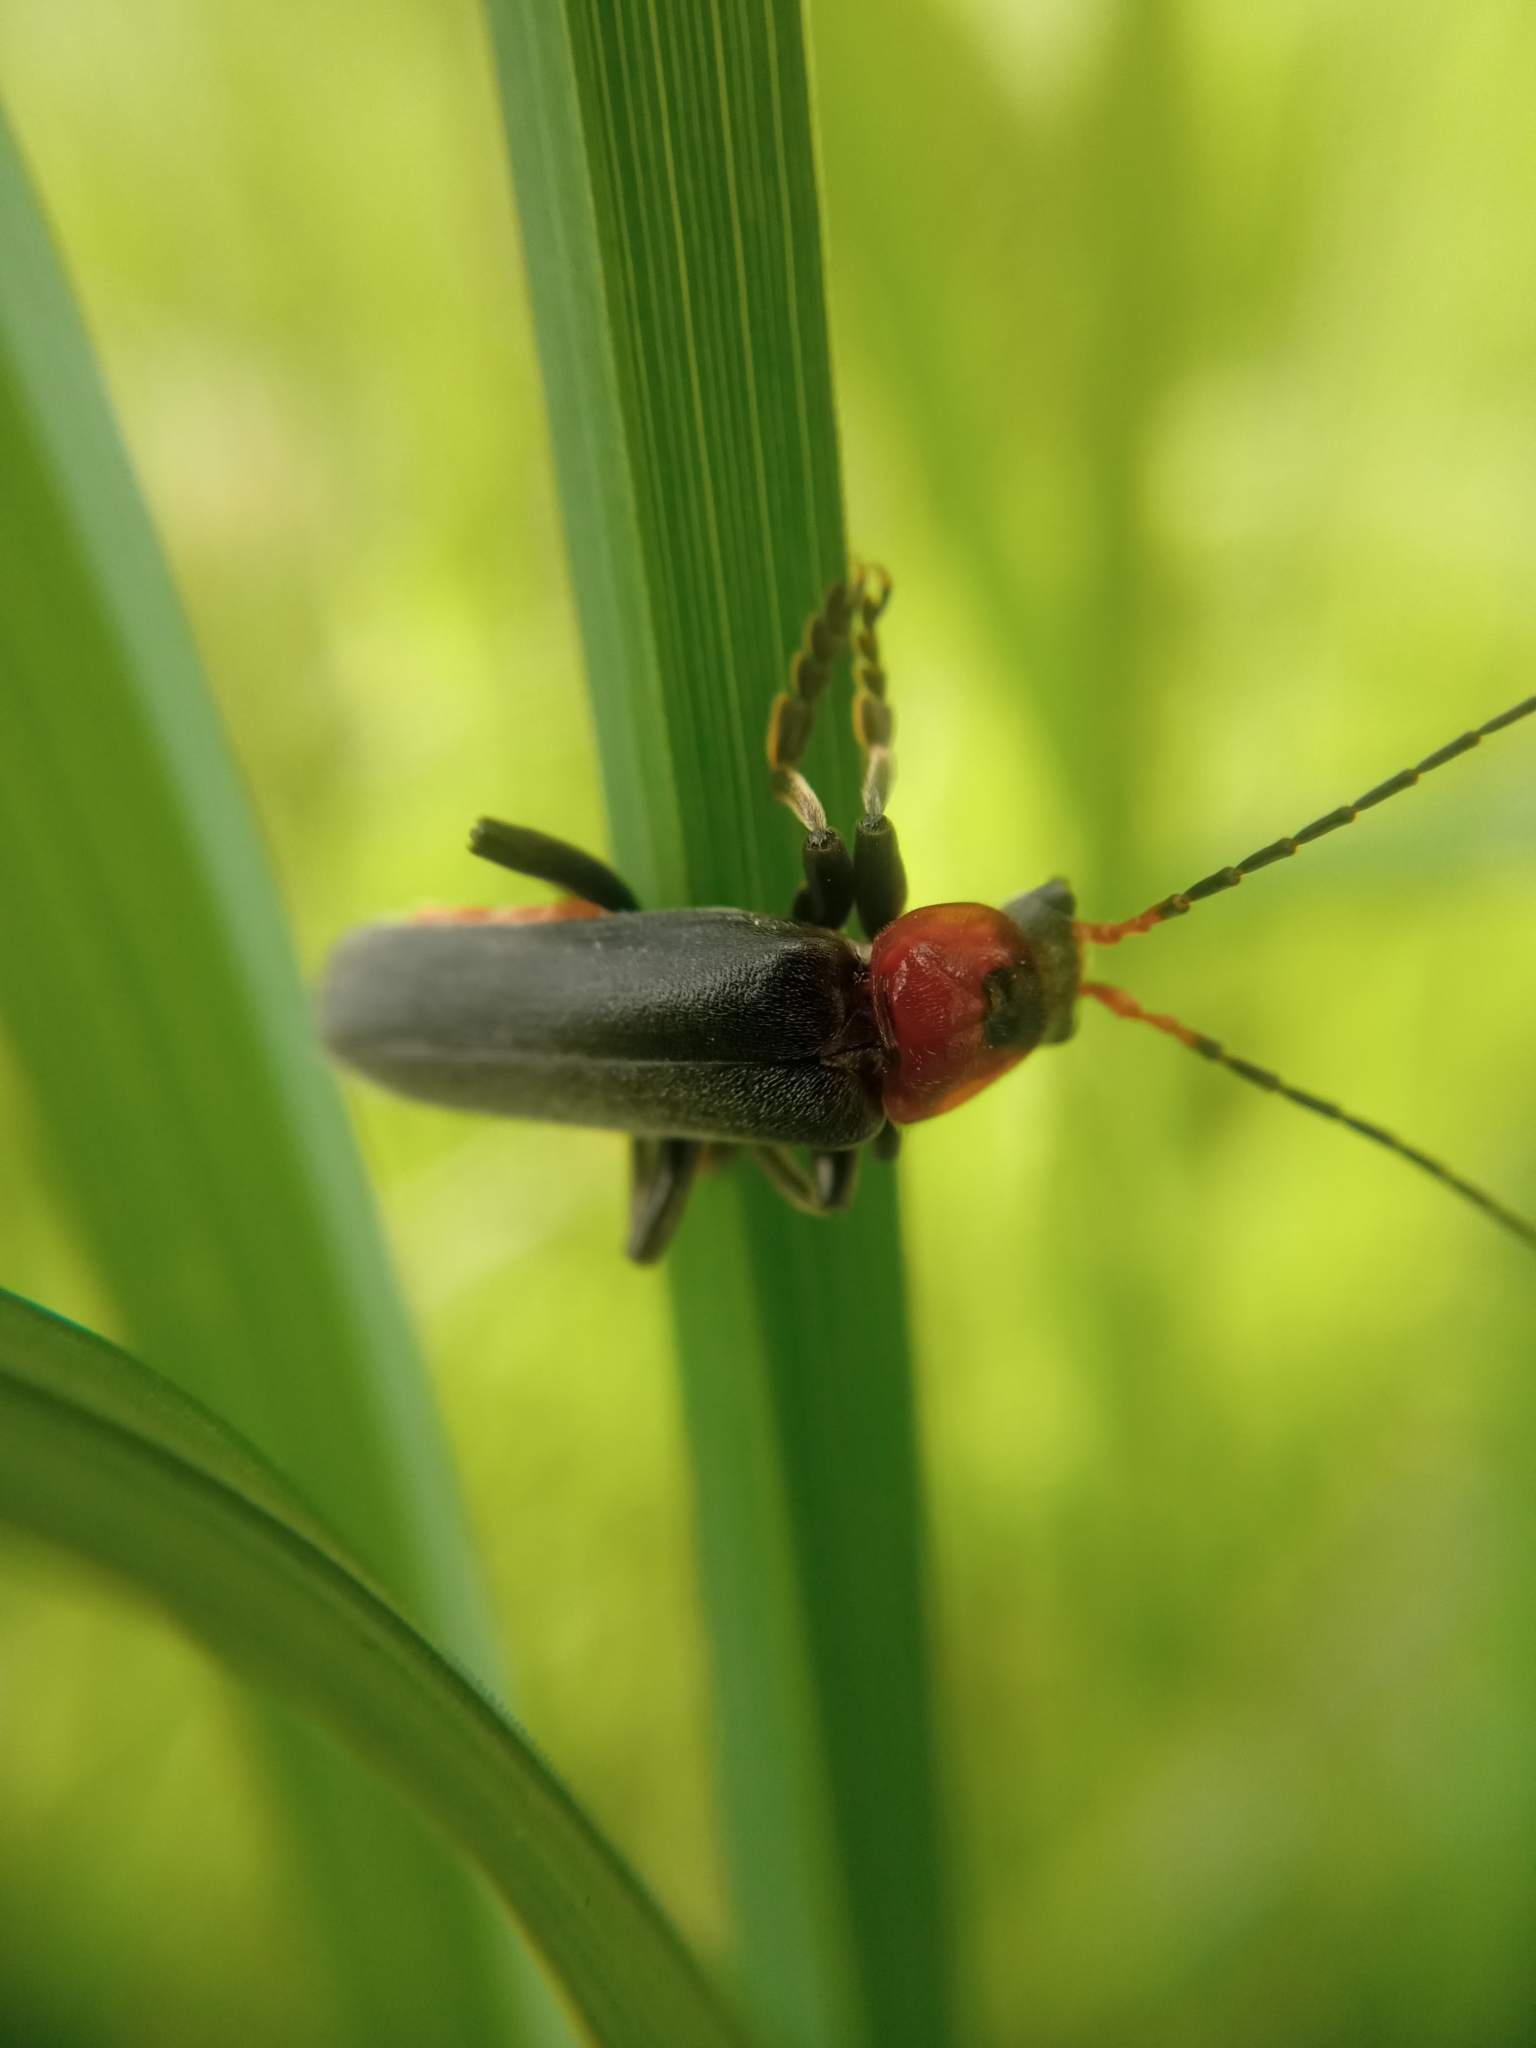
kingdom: Animalia
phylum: Arthropoda
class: Insecta
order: Coleoptera
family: Cantharidae
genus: Cantharis
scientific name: Cantharis fusca
